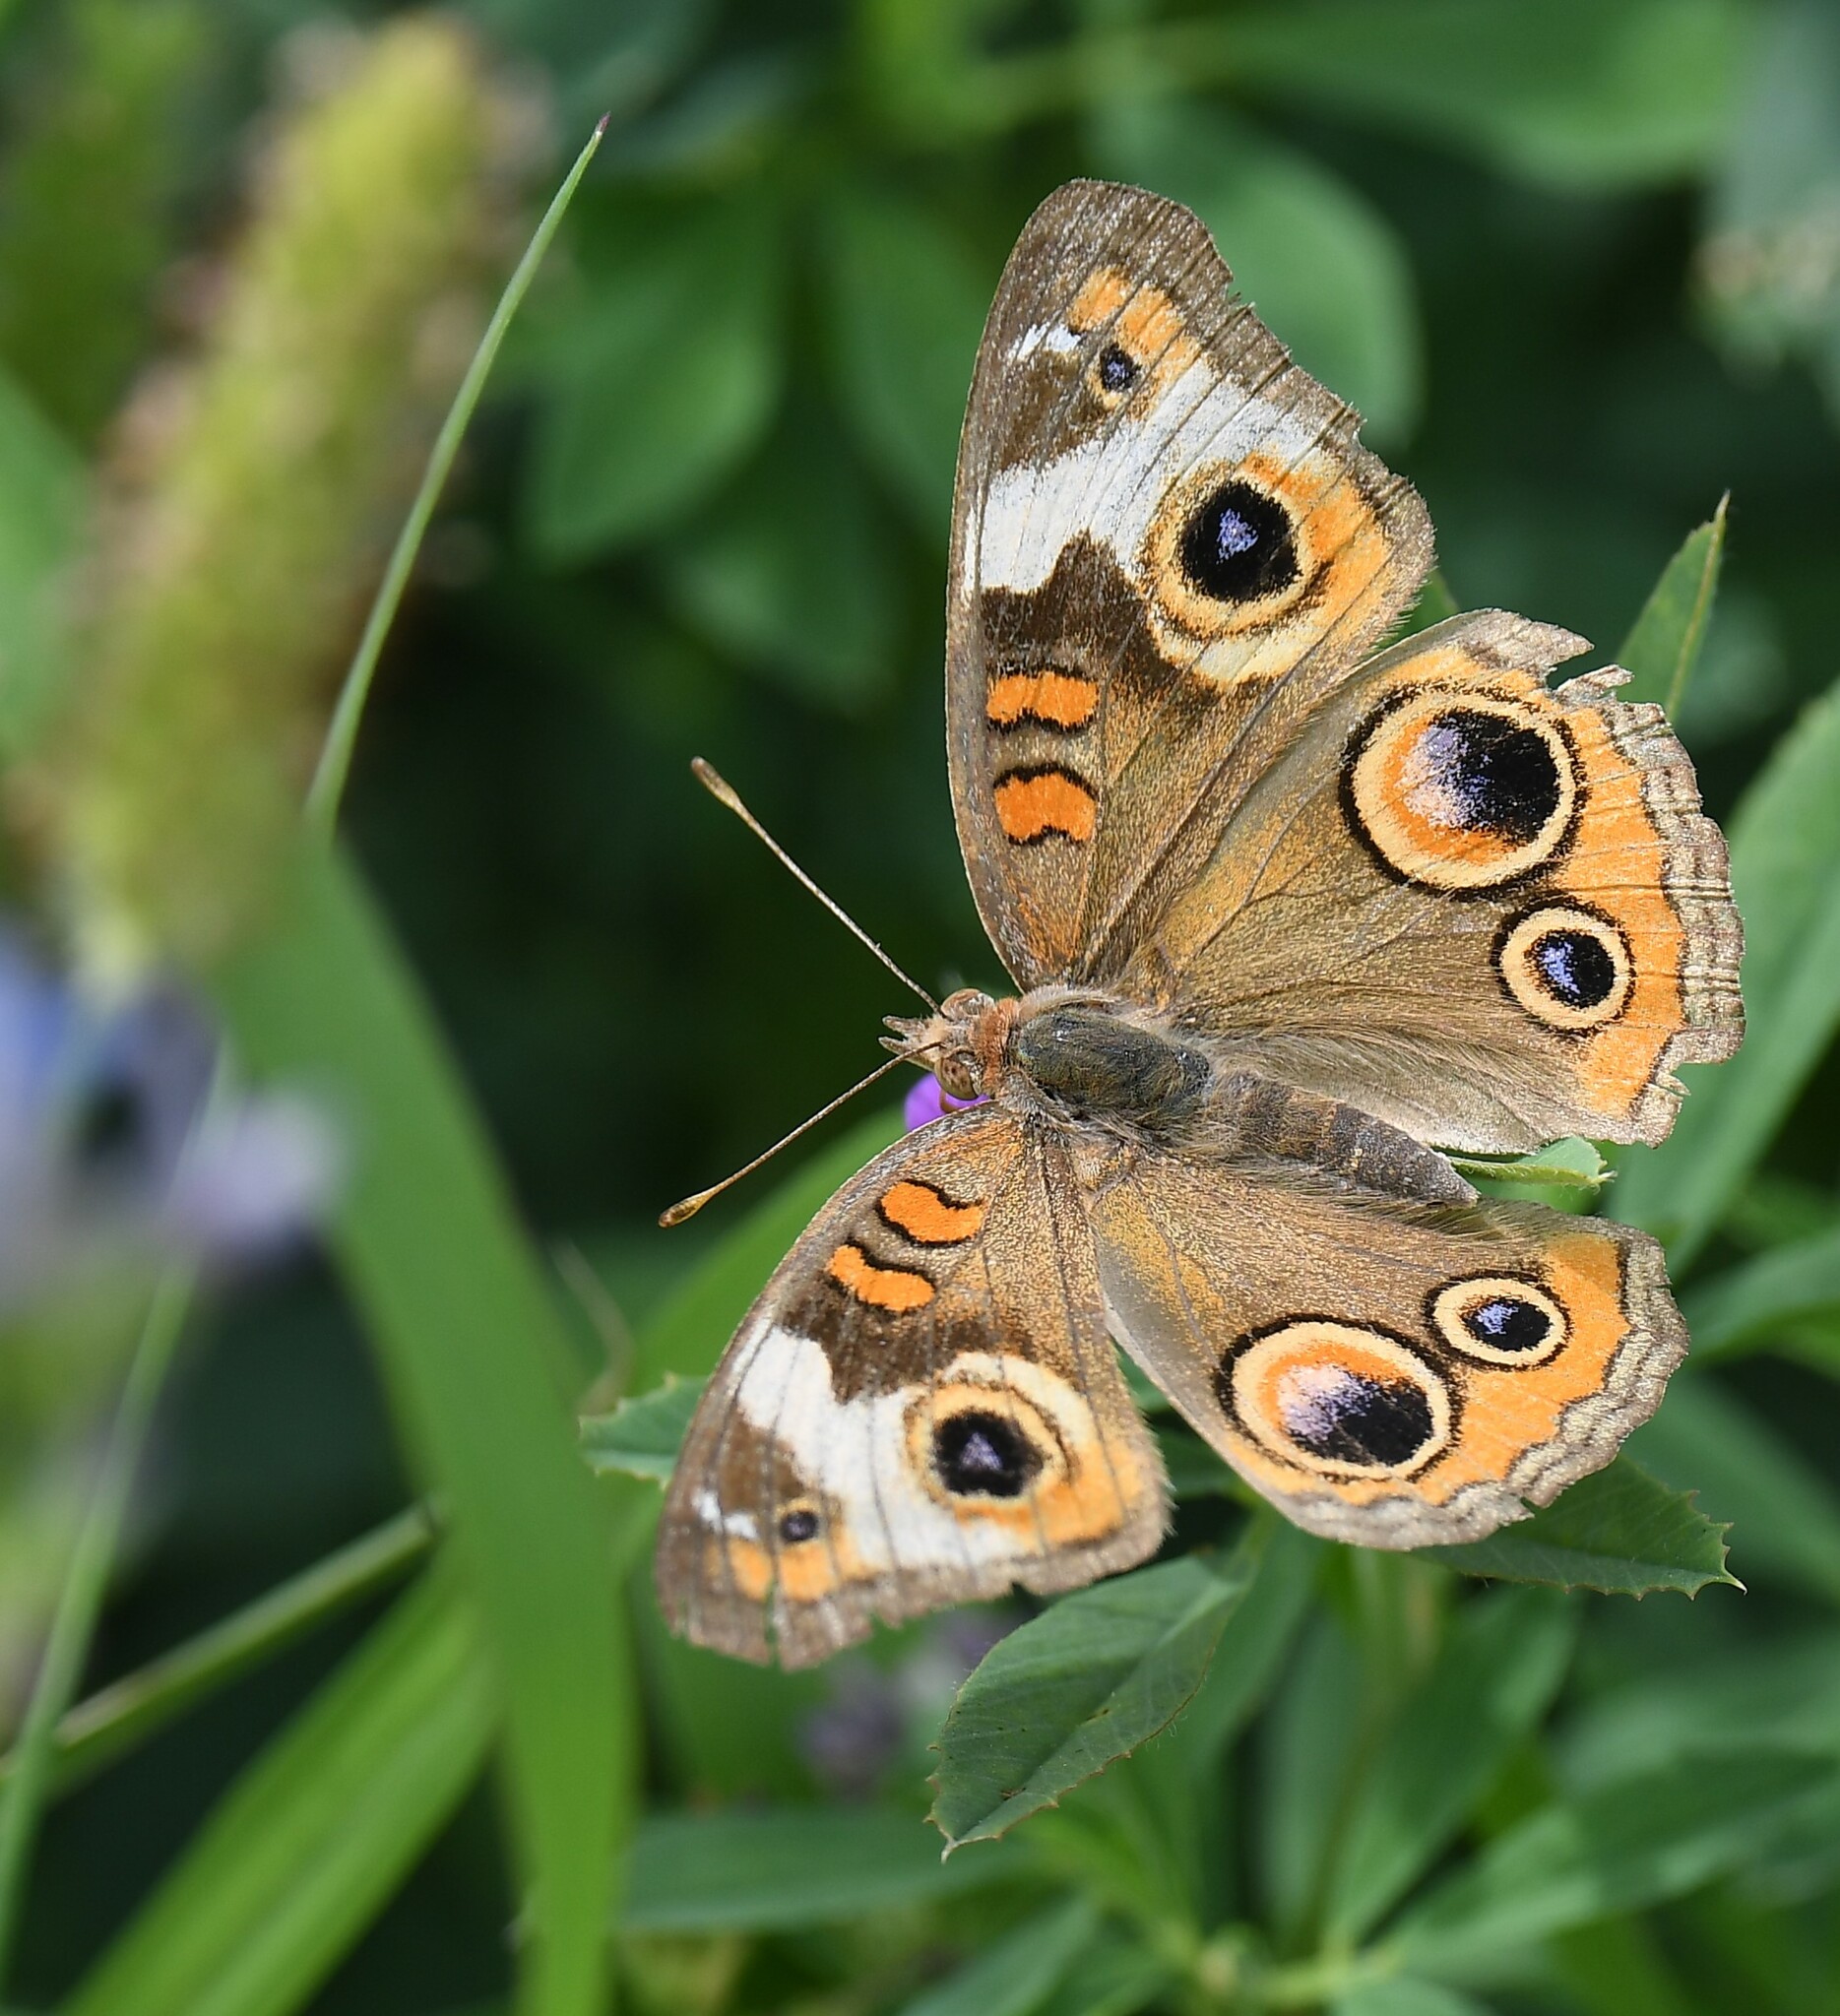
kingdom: Animalia
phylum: Arthropoda
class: Insecta
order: Lepidoptera
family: Nymphalidae
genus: Junonia
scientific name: Junonia coenia
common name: Common buckeye
